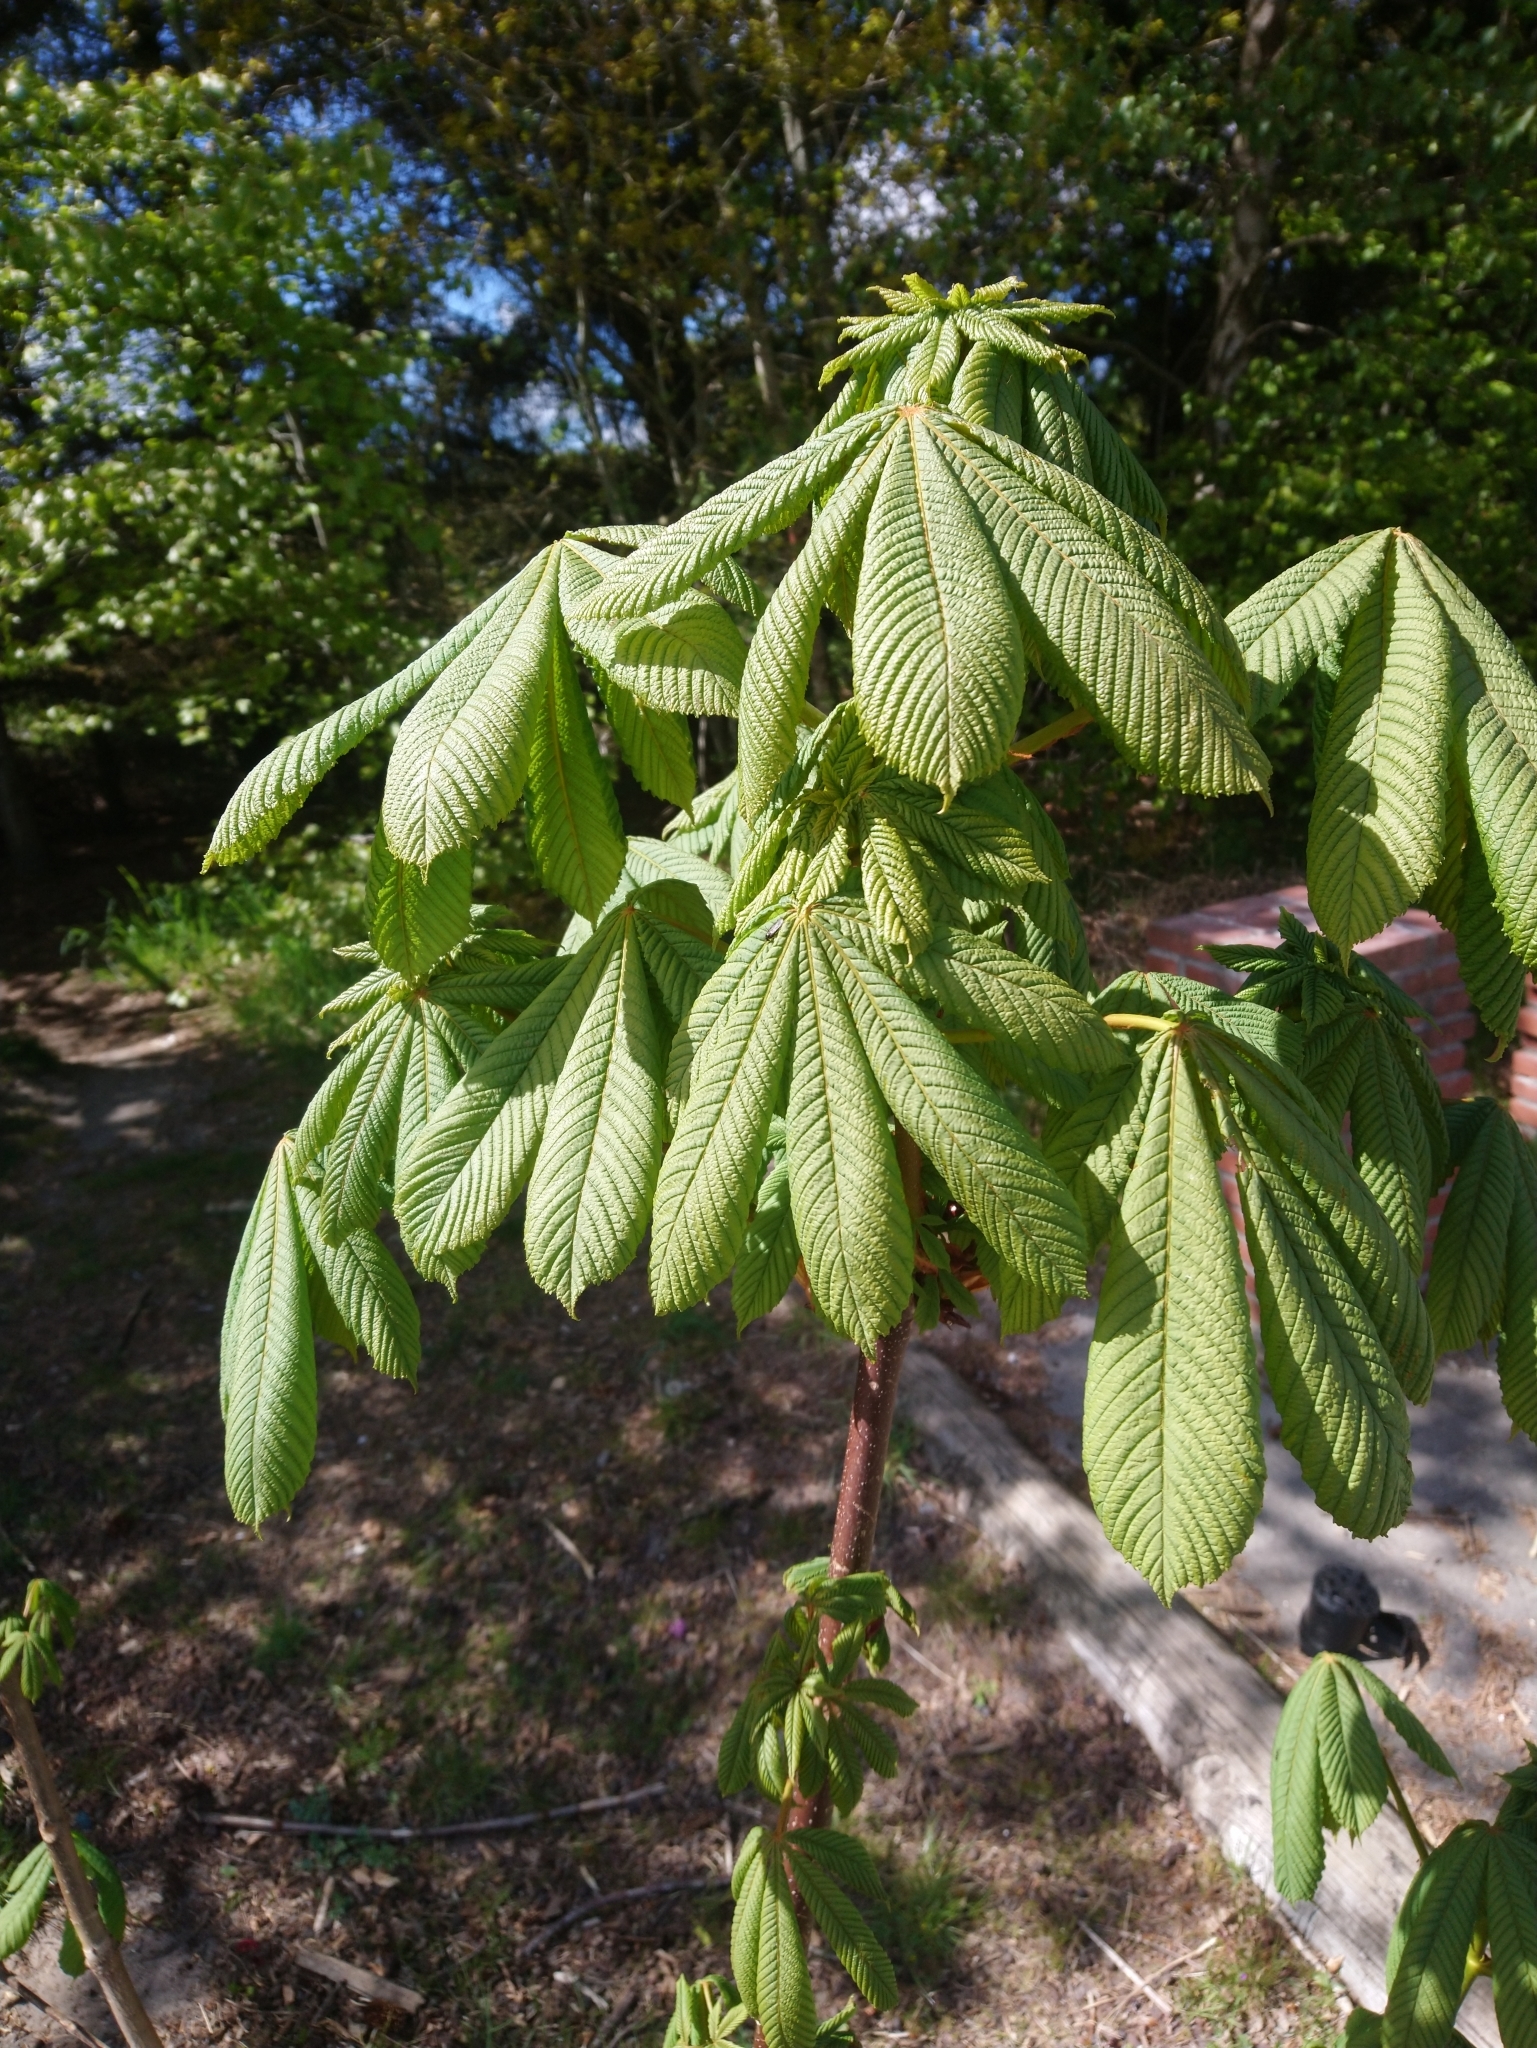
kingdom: Plantae
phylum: Tracheophyta
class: Magnoliopsida
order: Sapindales
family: Sapindaceae
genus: Aesculus
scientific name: Aesculus hippocastanum
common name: Horse-chestnut
